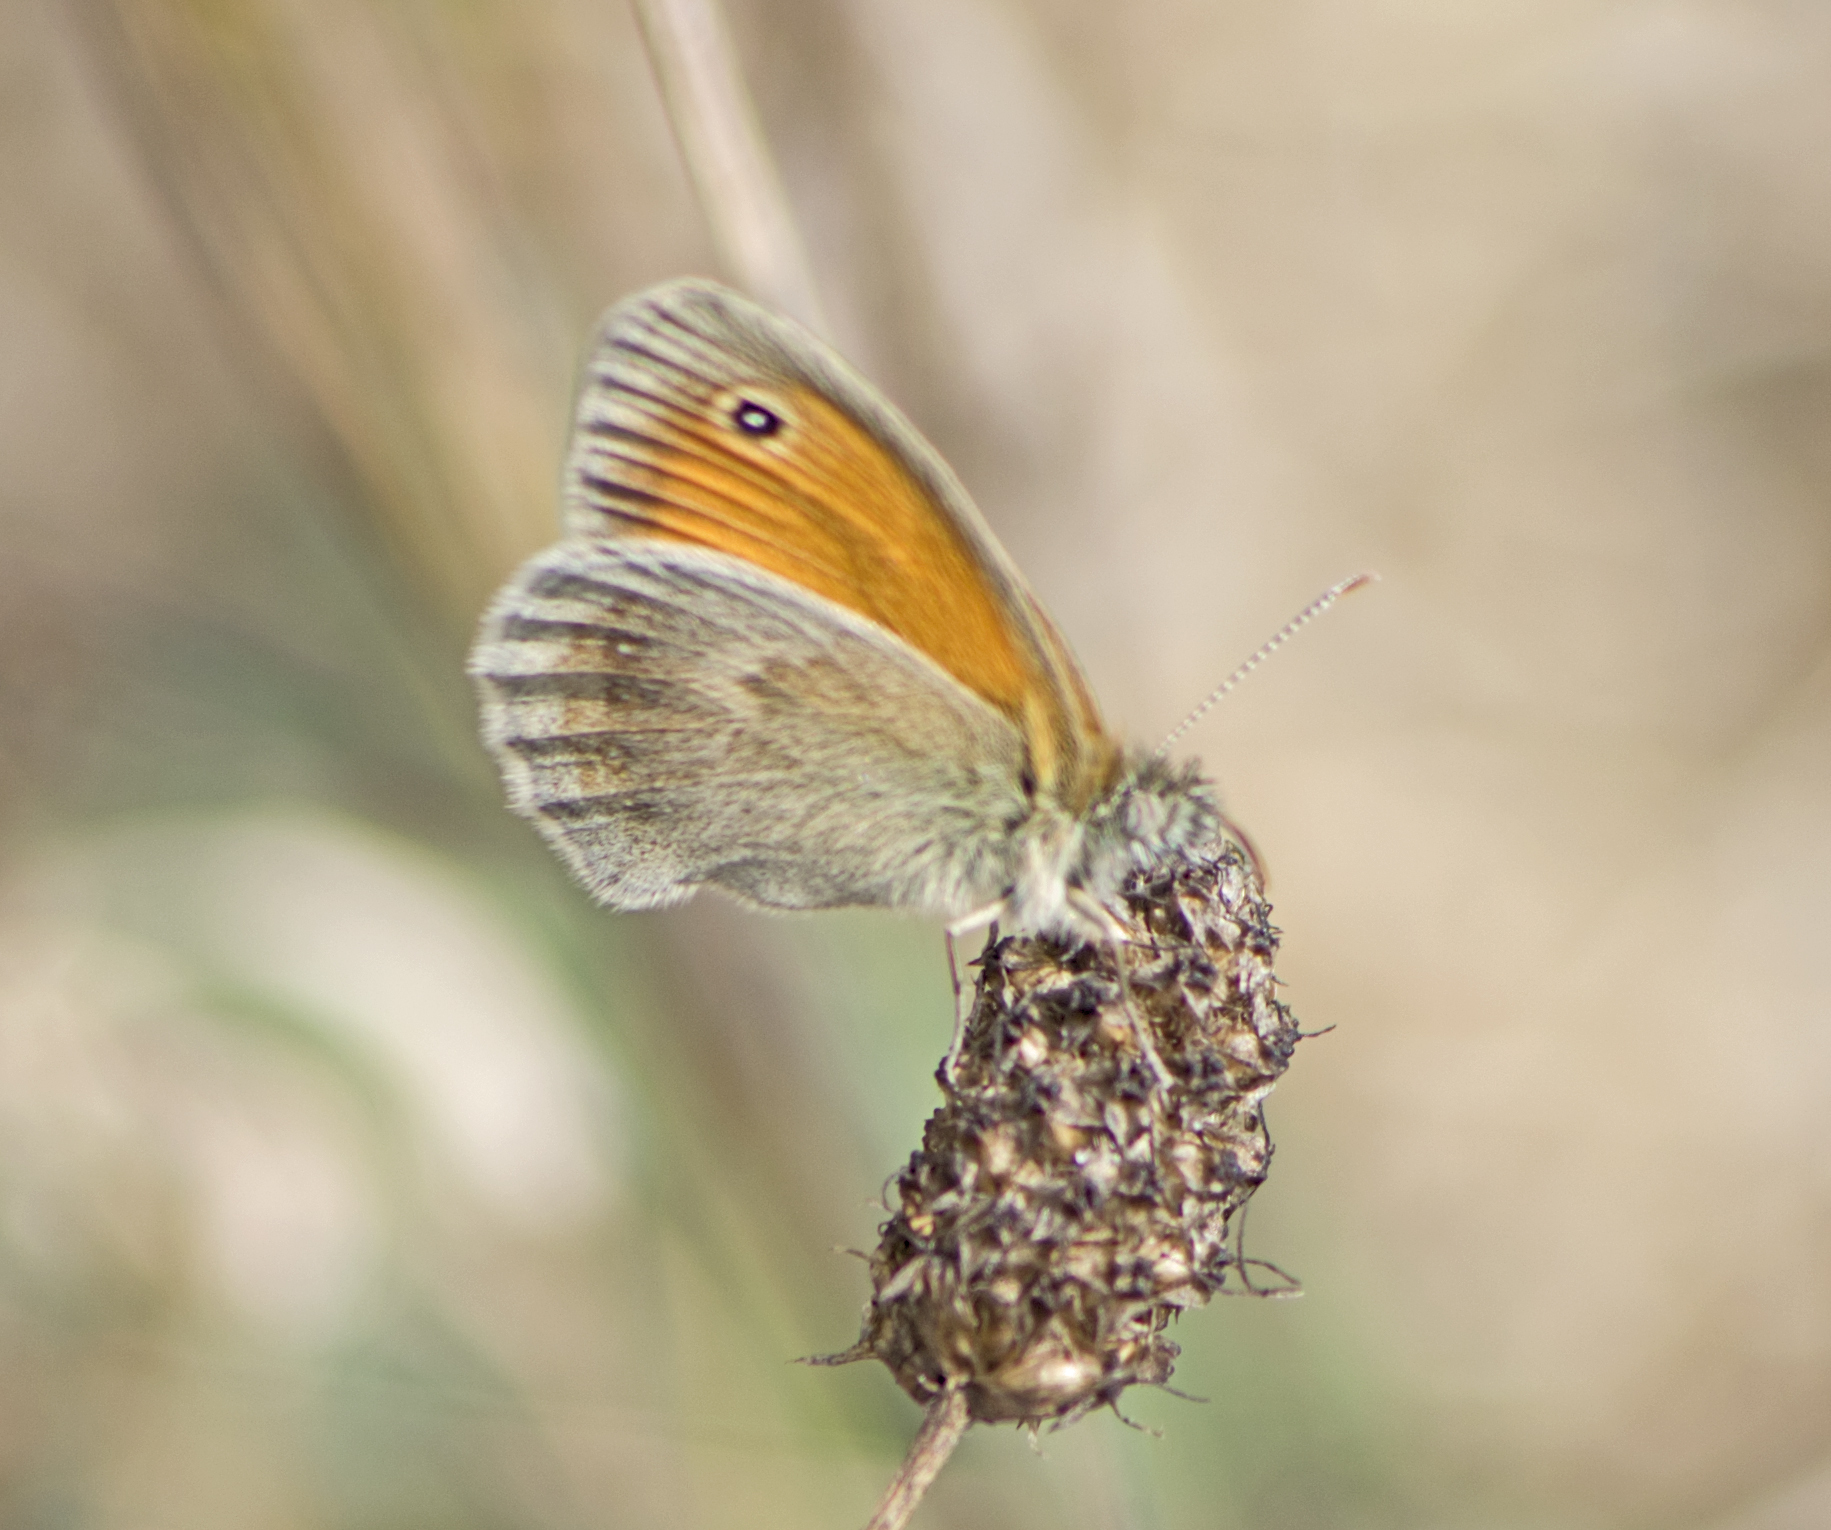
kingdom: Animalia
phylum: Arthropoda
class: Insecta
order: Lepidoptera
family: Nymphalidae
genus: Coenonympha
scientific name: Coenonympha pamphilus
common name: Small heath
